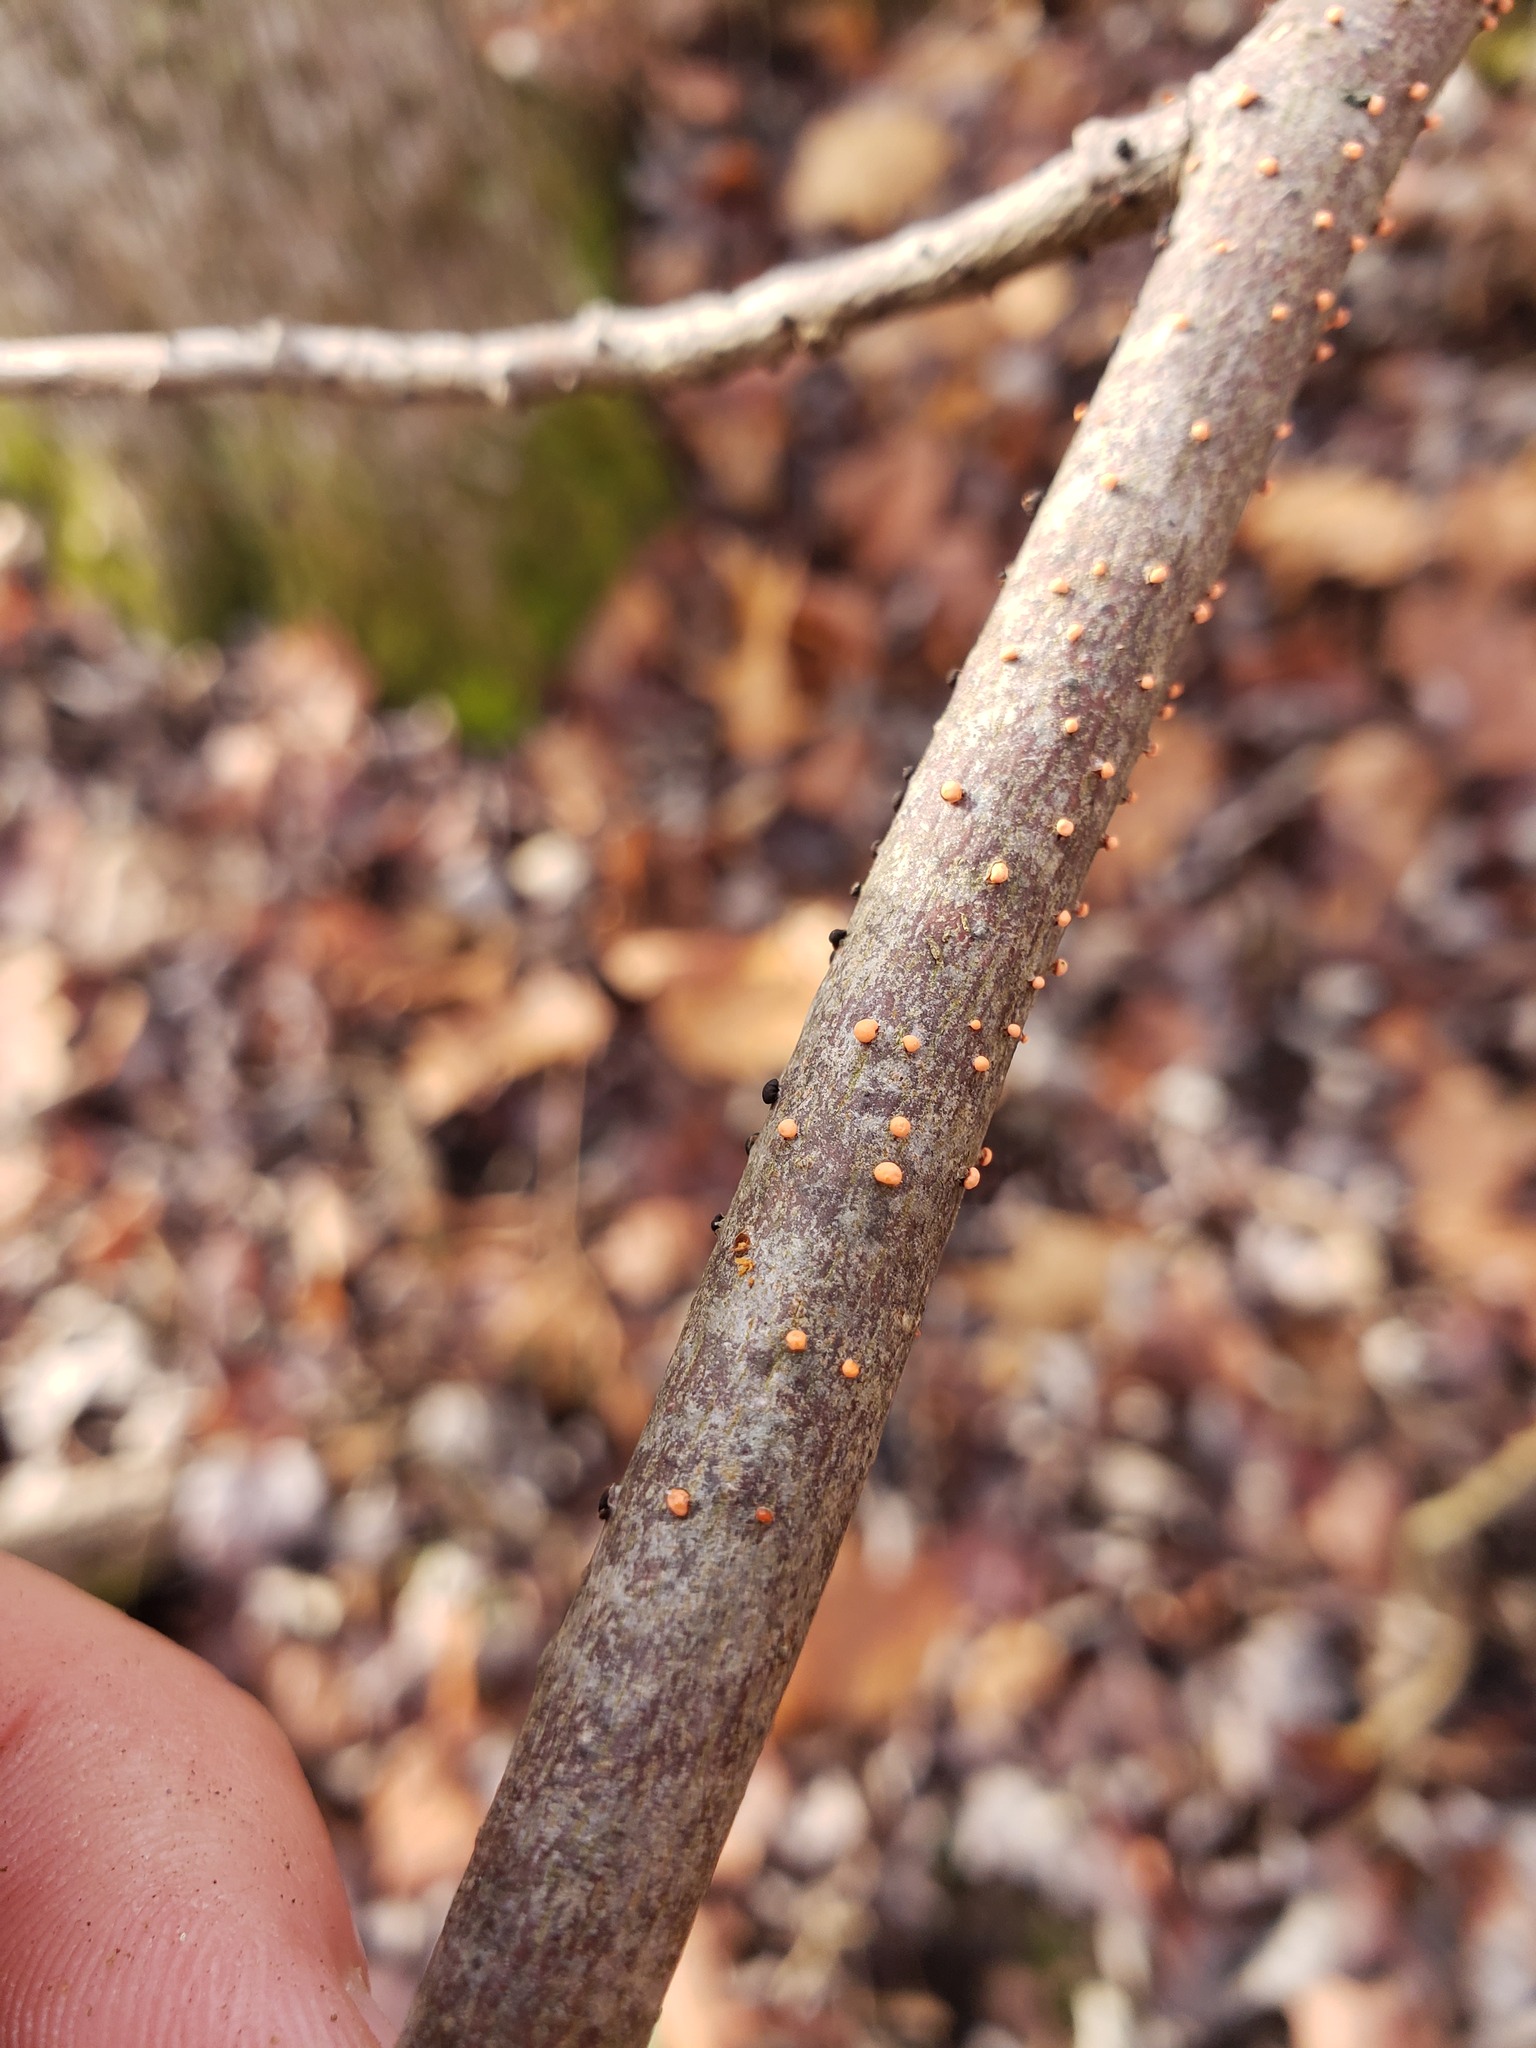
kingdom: Fungi
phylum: Ascomycota
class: Sordariomycetes
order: Hypocreales
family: Nectriaceae
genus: Nectria
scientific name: Nectria cinnabarina
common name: Coral spot
